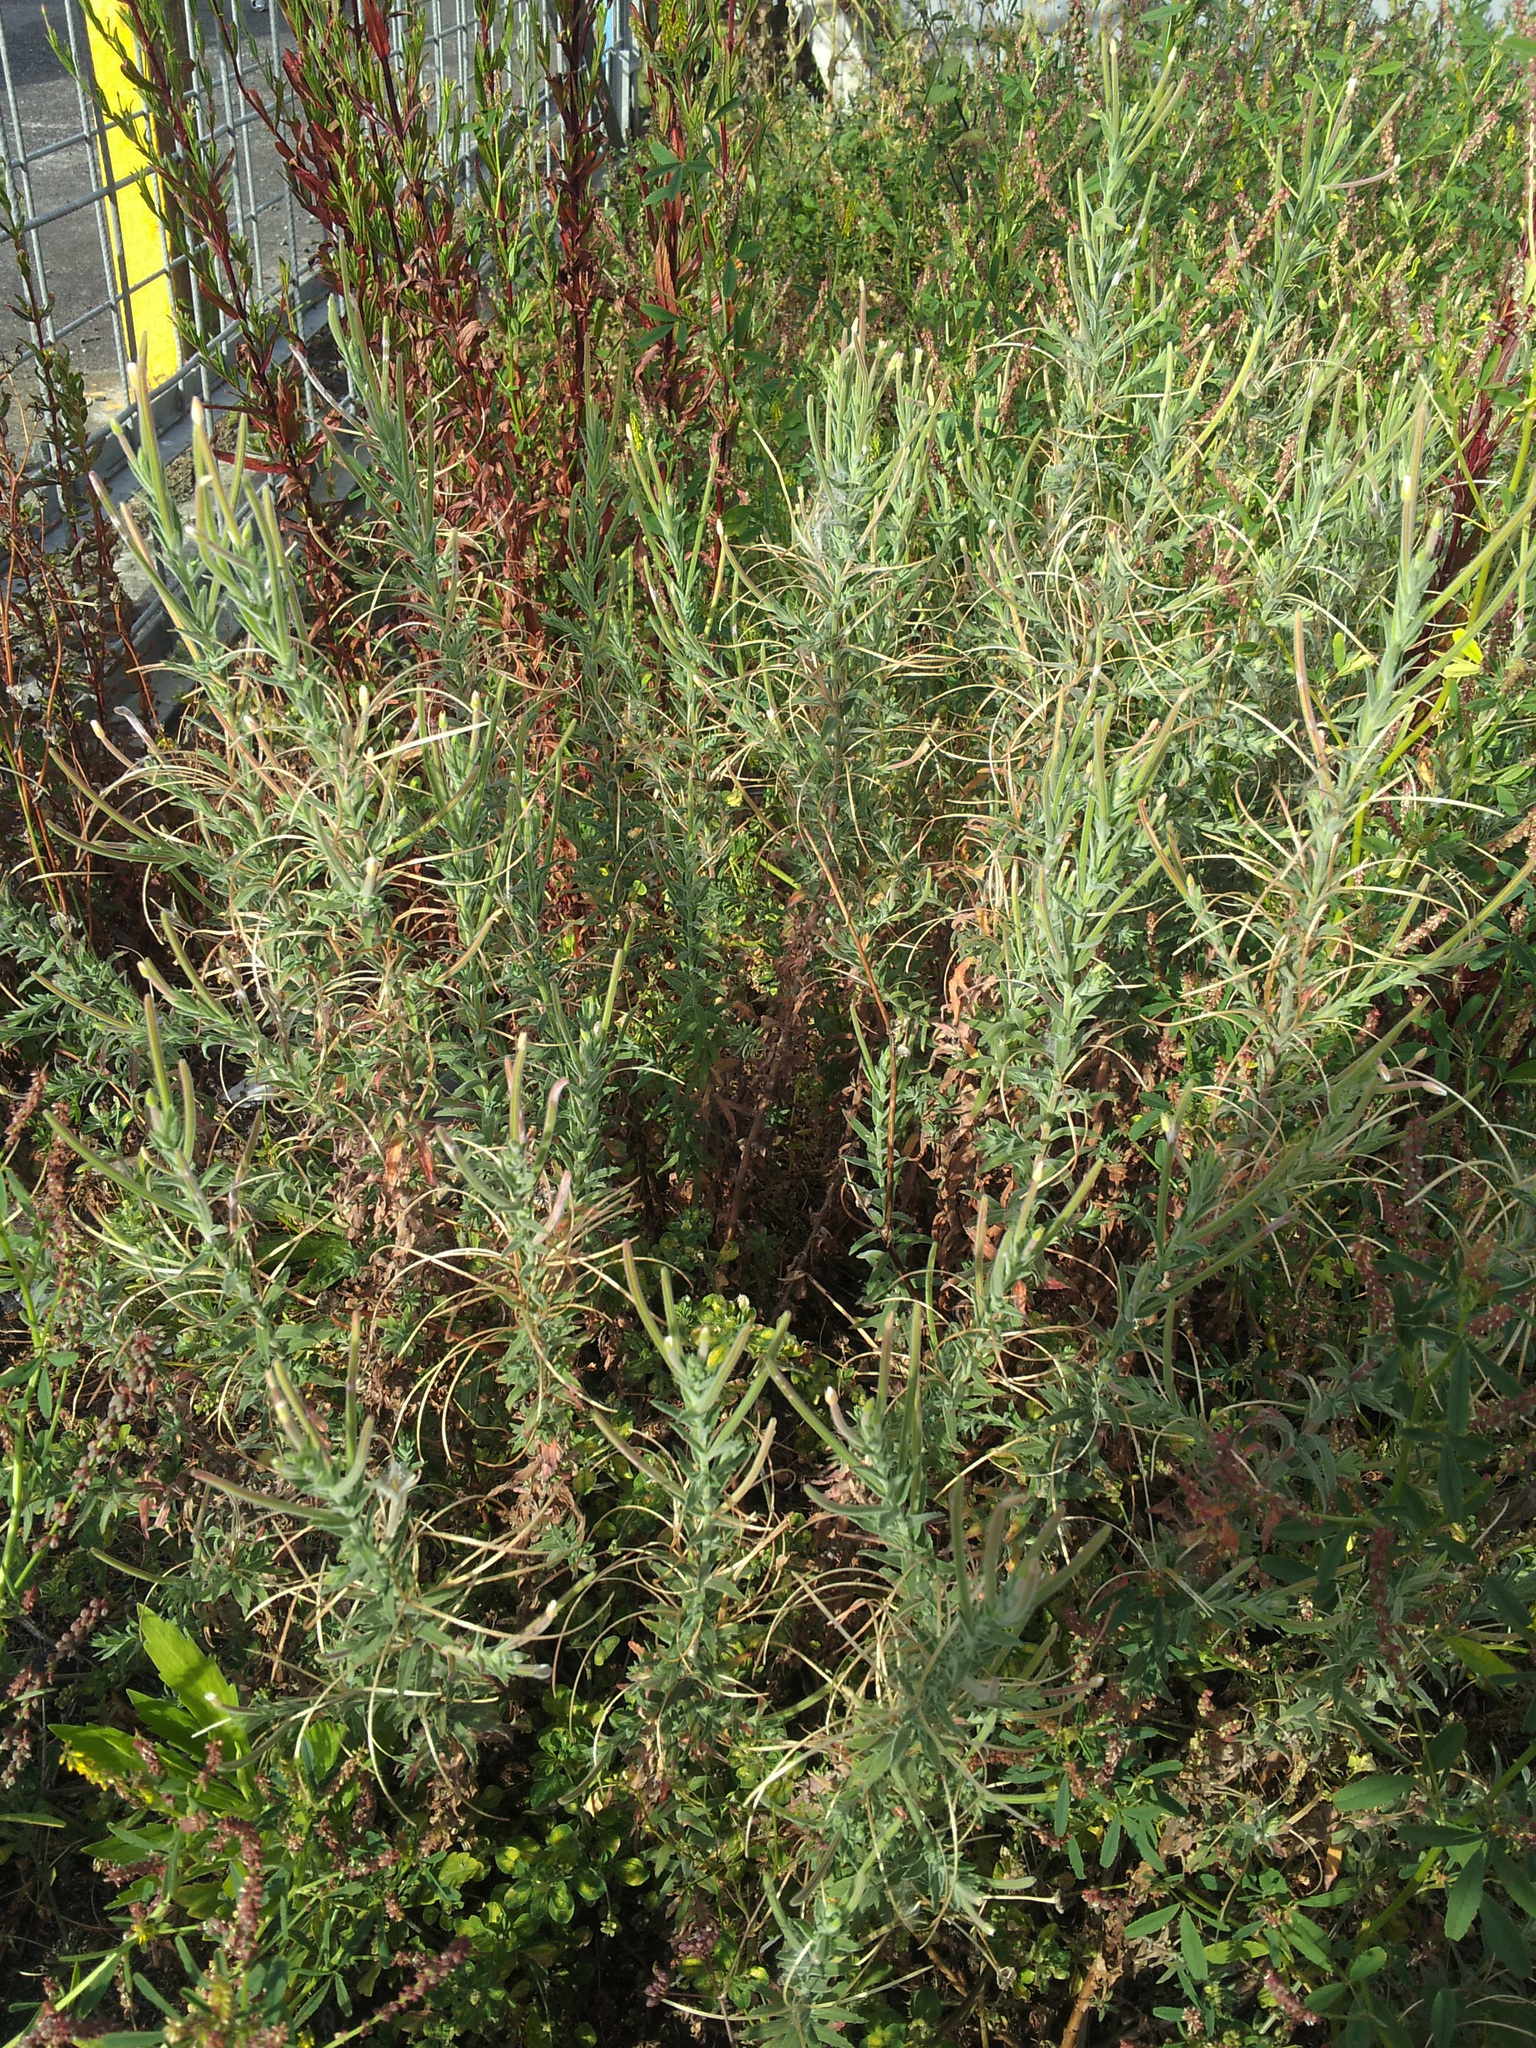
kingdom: Plantae
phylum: Tracheophyta
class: Magnoliopsida
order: Myrtales
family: Onagraceae
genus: Epilobium
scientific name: Epilobium hirtigerum
